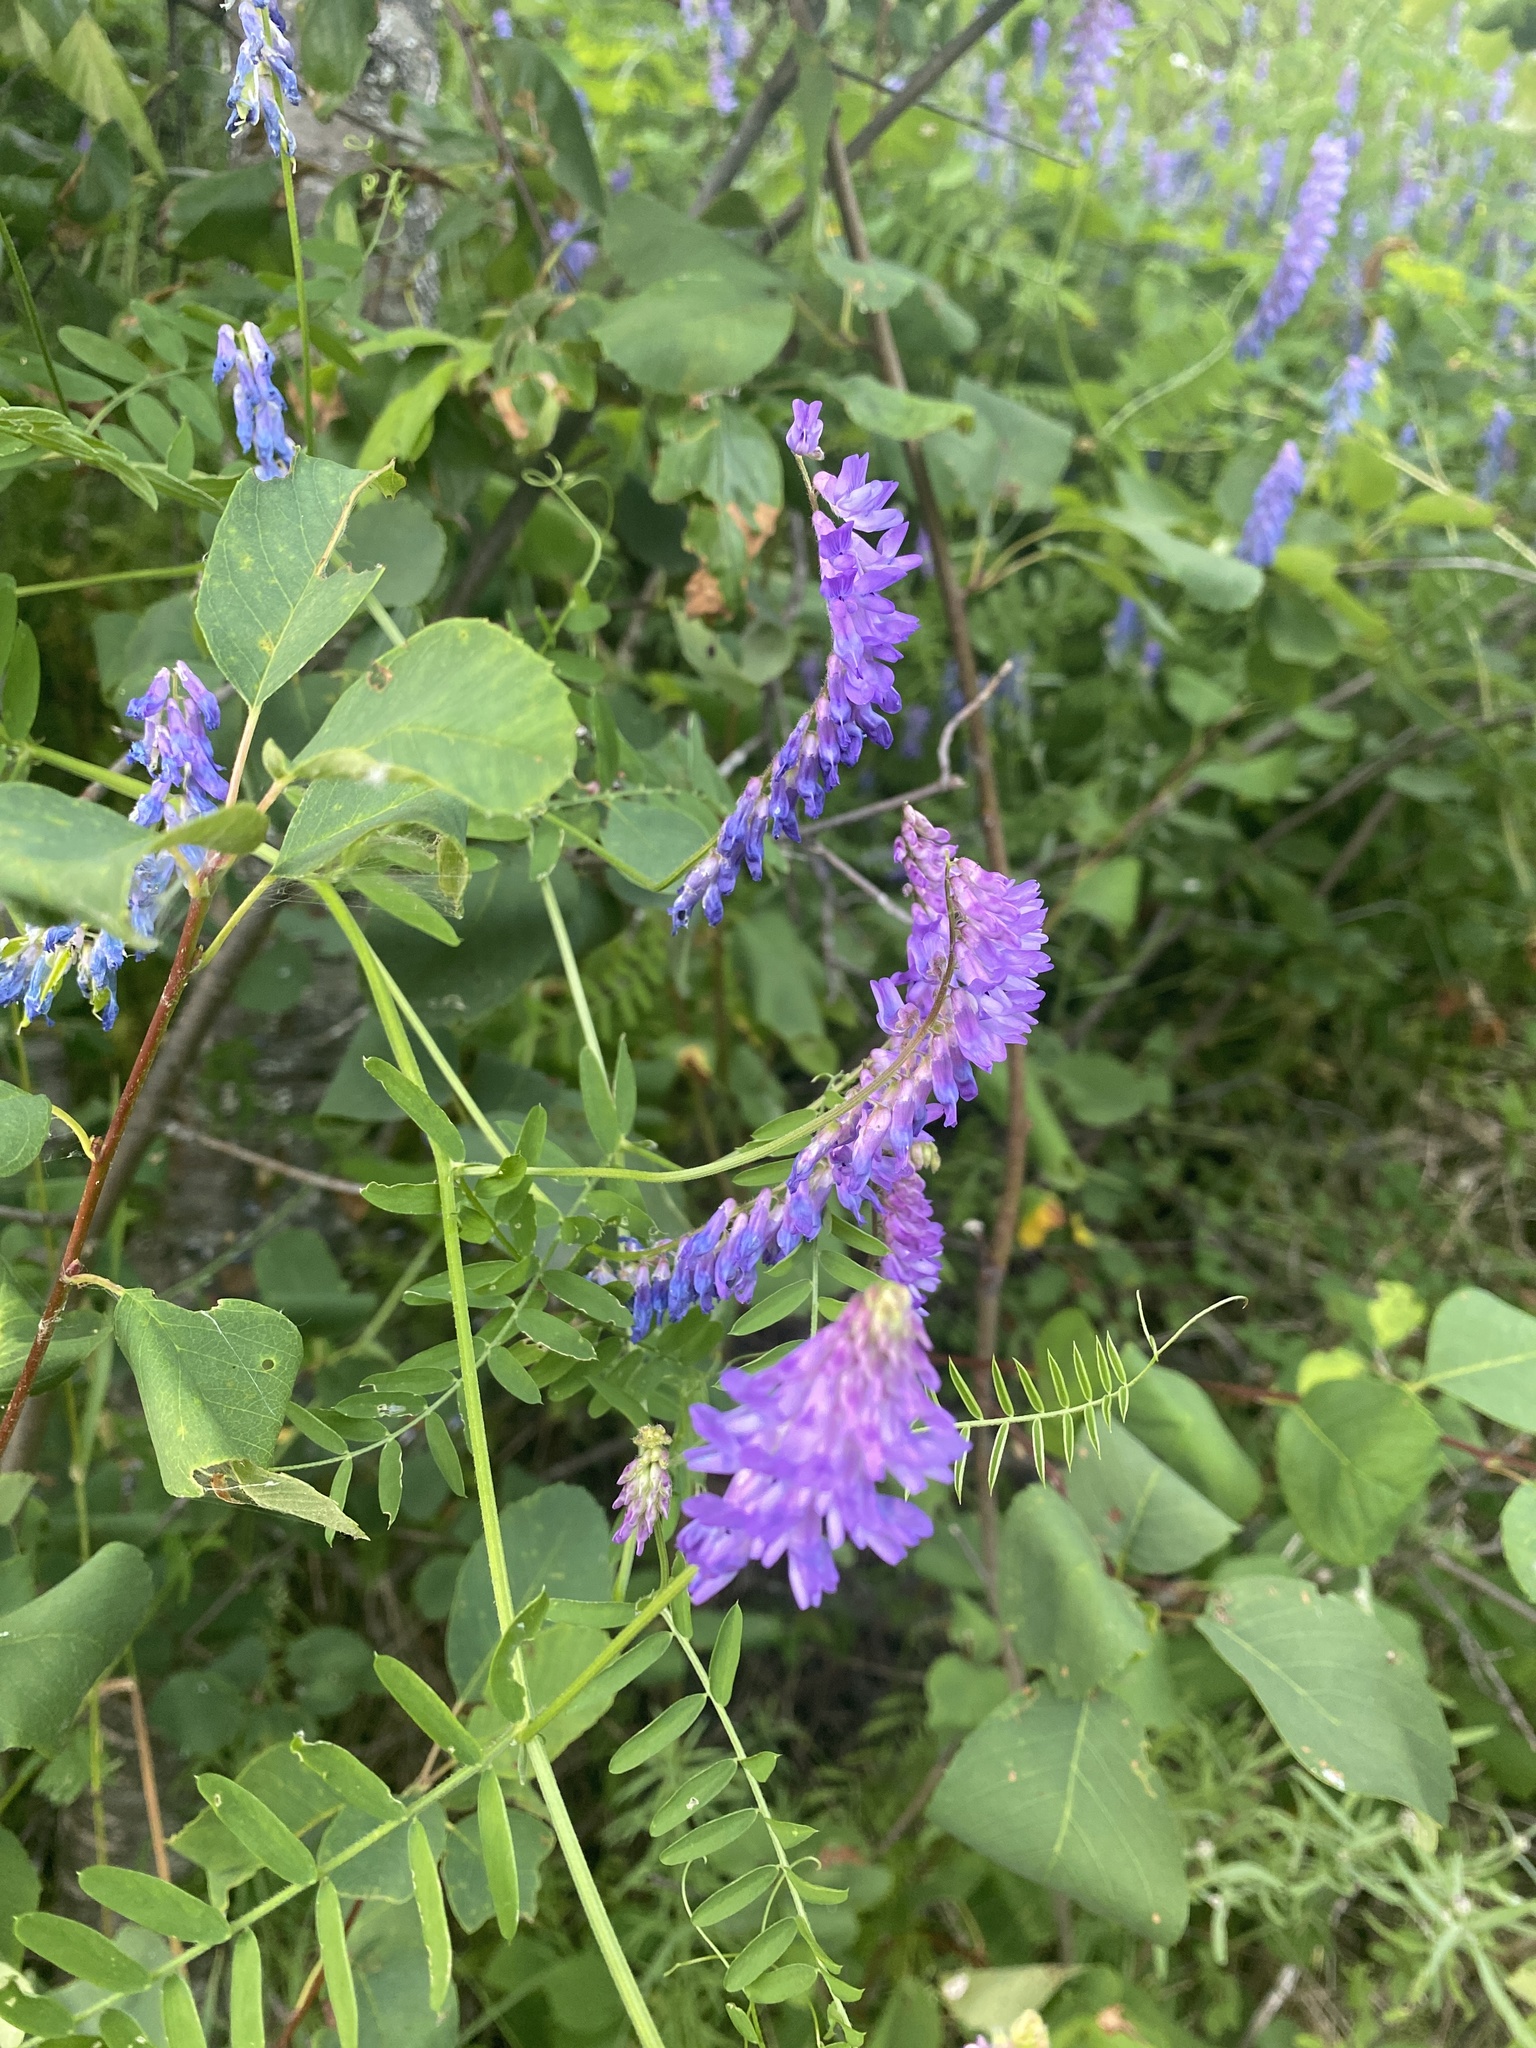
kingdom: Plantae
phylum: Tracheophyta
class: Magnoliopsida
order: Fabales
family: Fabaceae
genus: Vicia
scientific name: Vicia cracca
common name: Bird vetch
